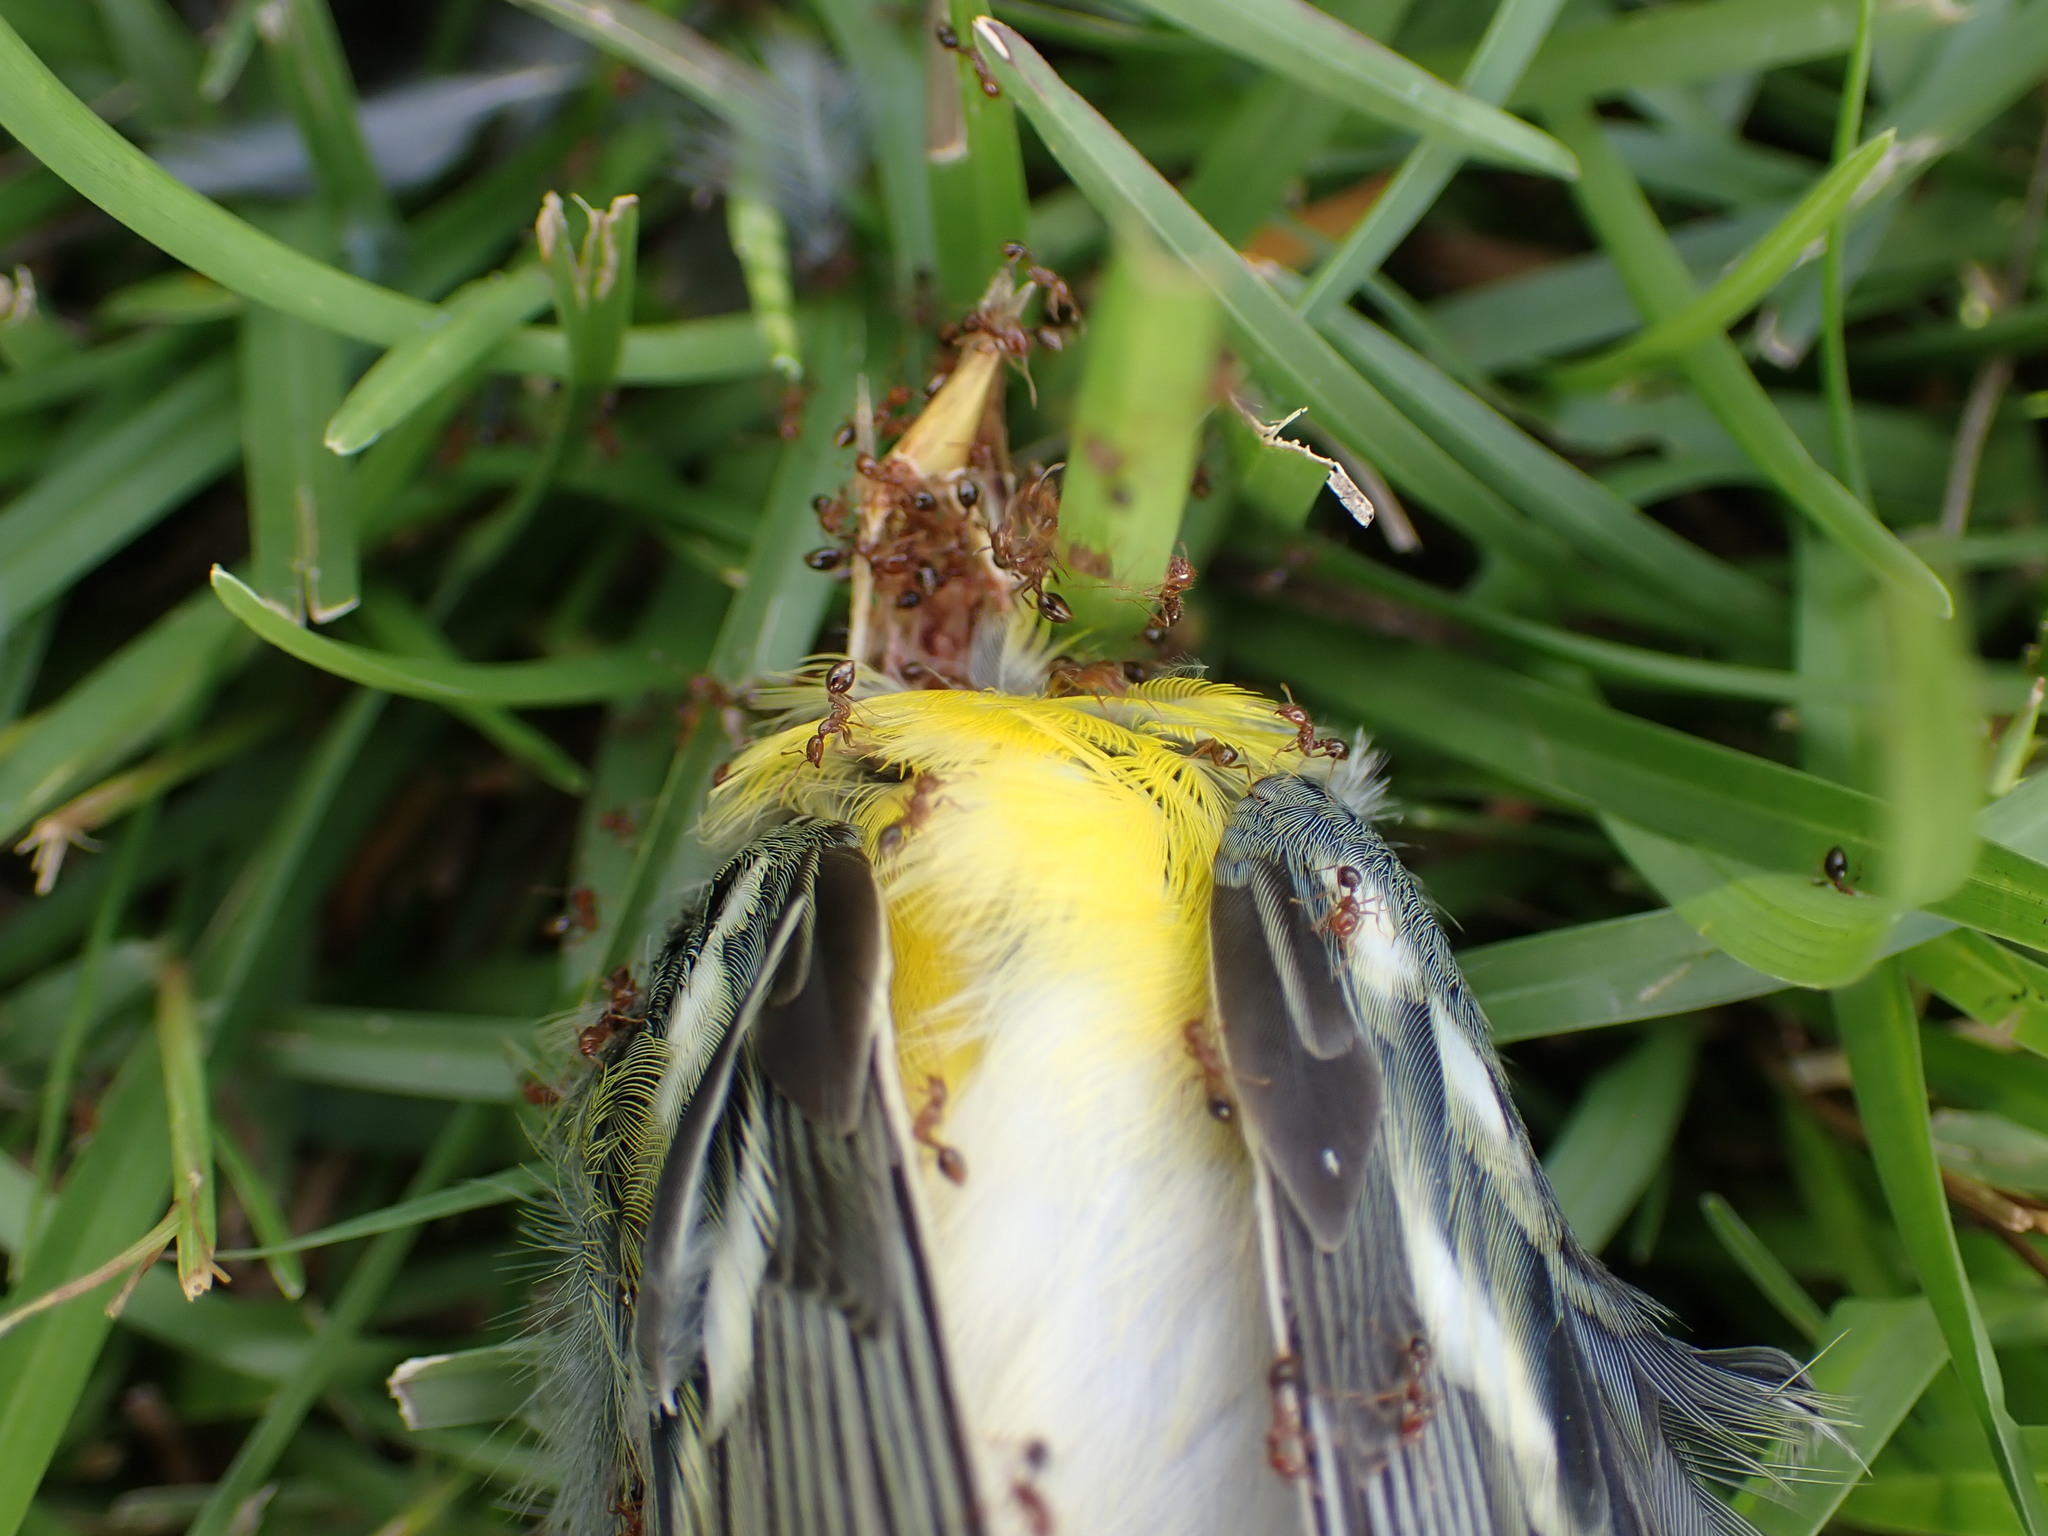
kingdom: Animalia
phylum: Chordata
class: Aves
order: Passeriformes
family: Parulidae
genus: Setophaga
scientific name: Setophaga americana
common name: Northern parula
